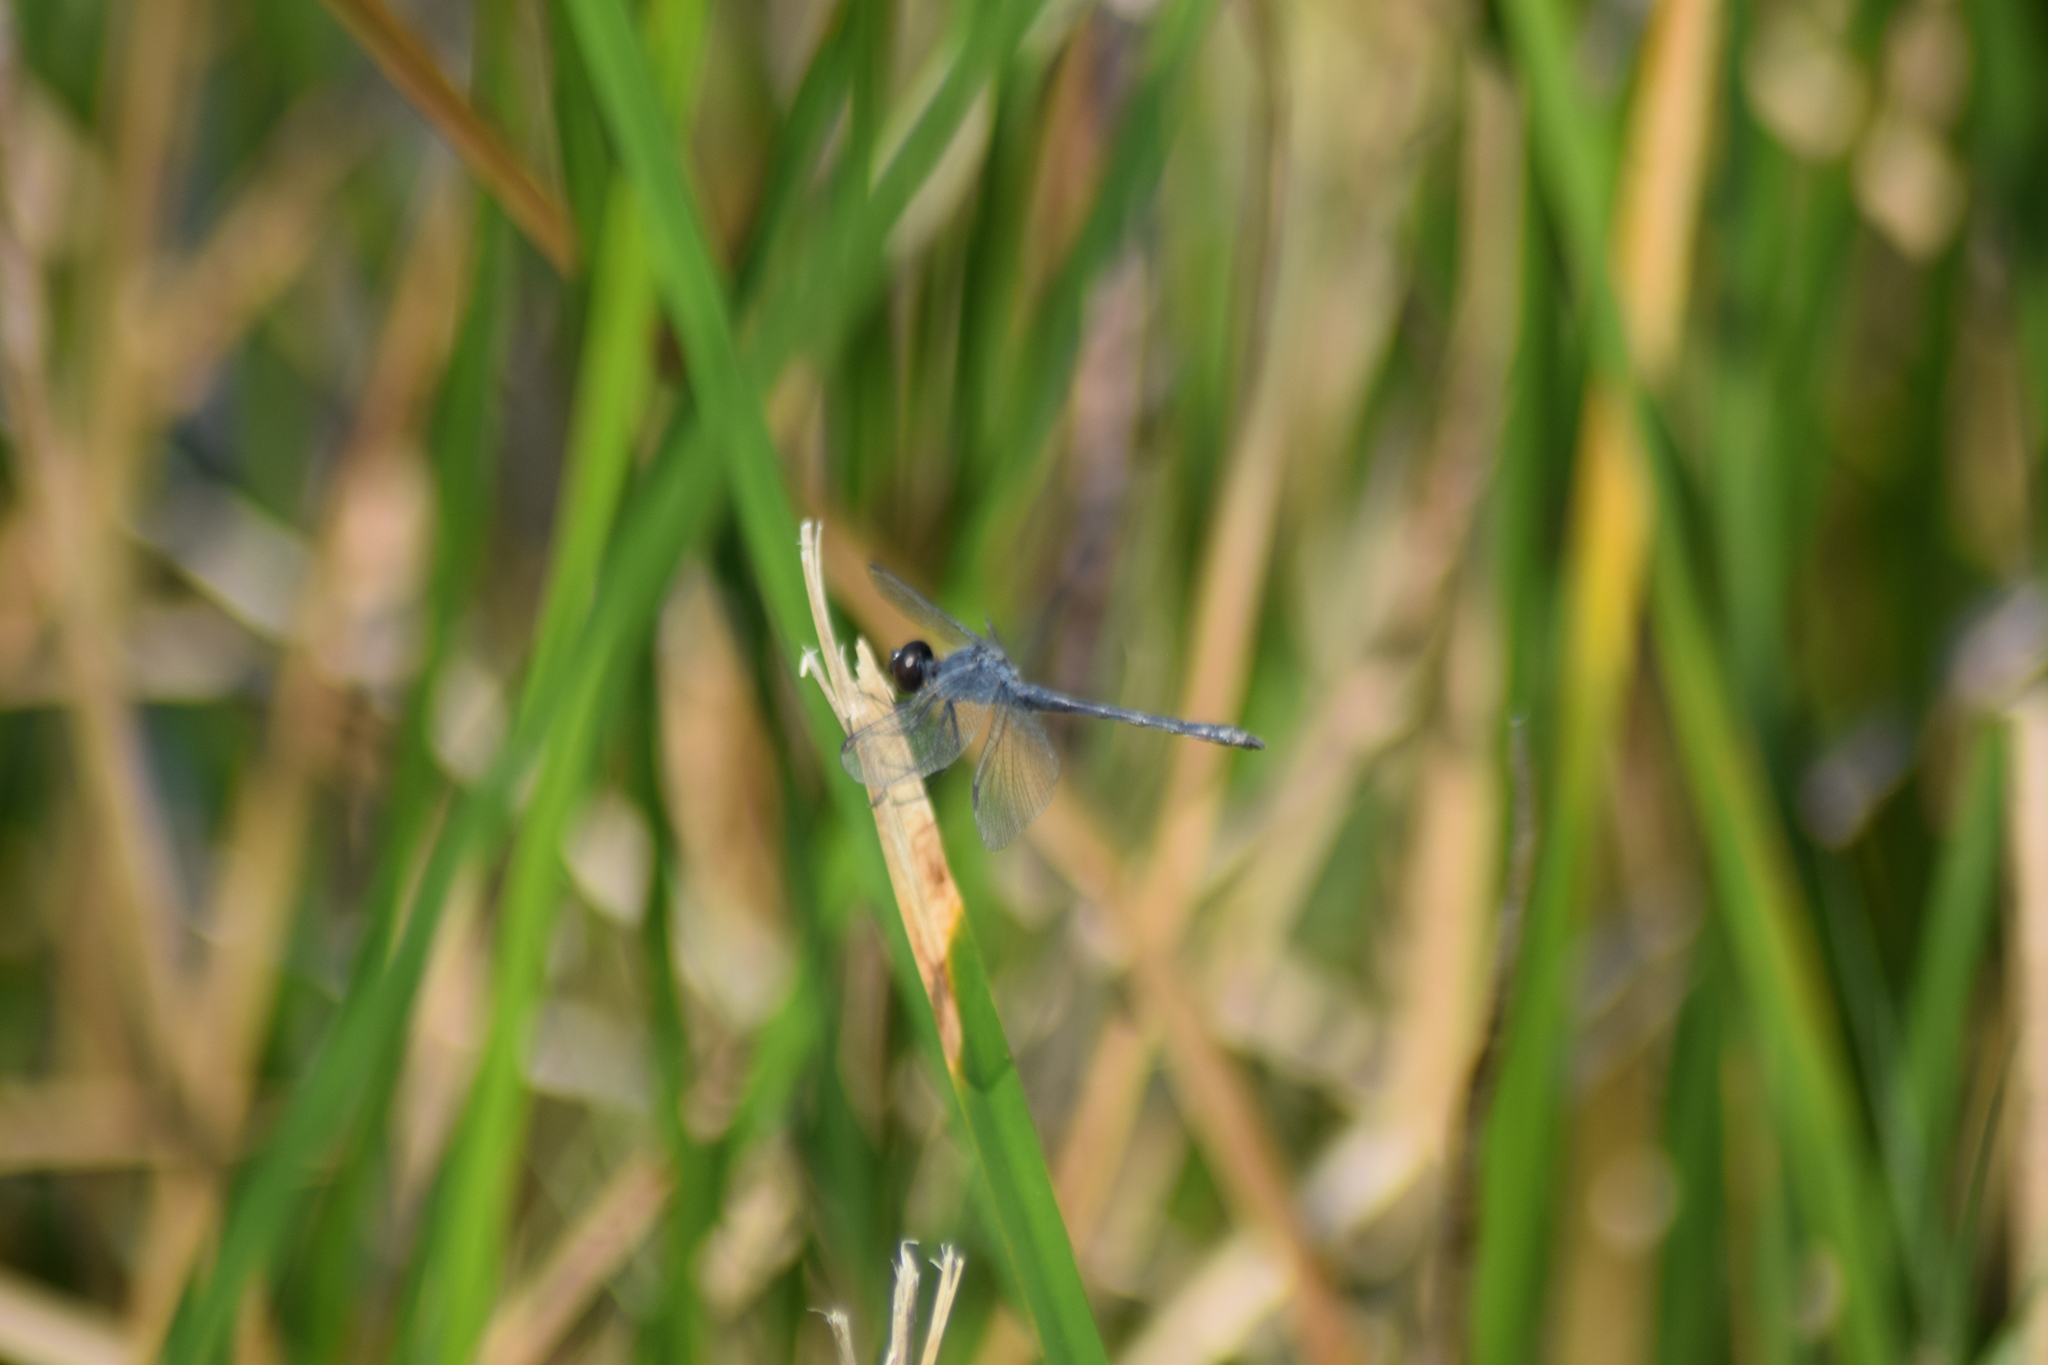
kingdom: Animalia
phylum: Arthropoda
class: Insecta
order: Odonata
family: Libellulidae
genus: Erythrodiplax
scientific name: Erythrodiplax berenice
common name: Seaside dragonlet
